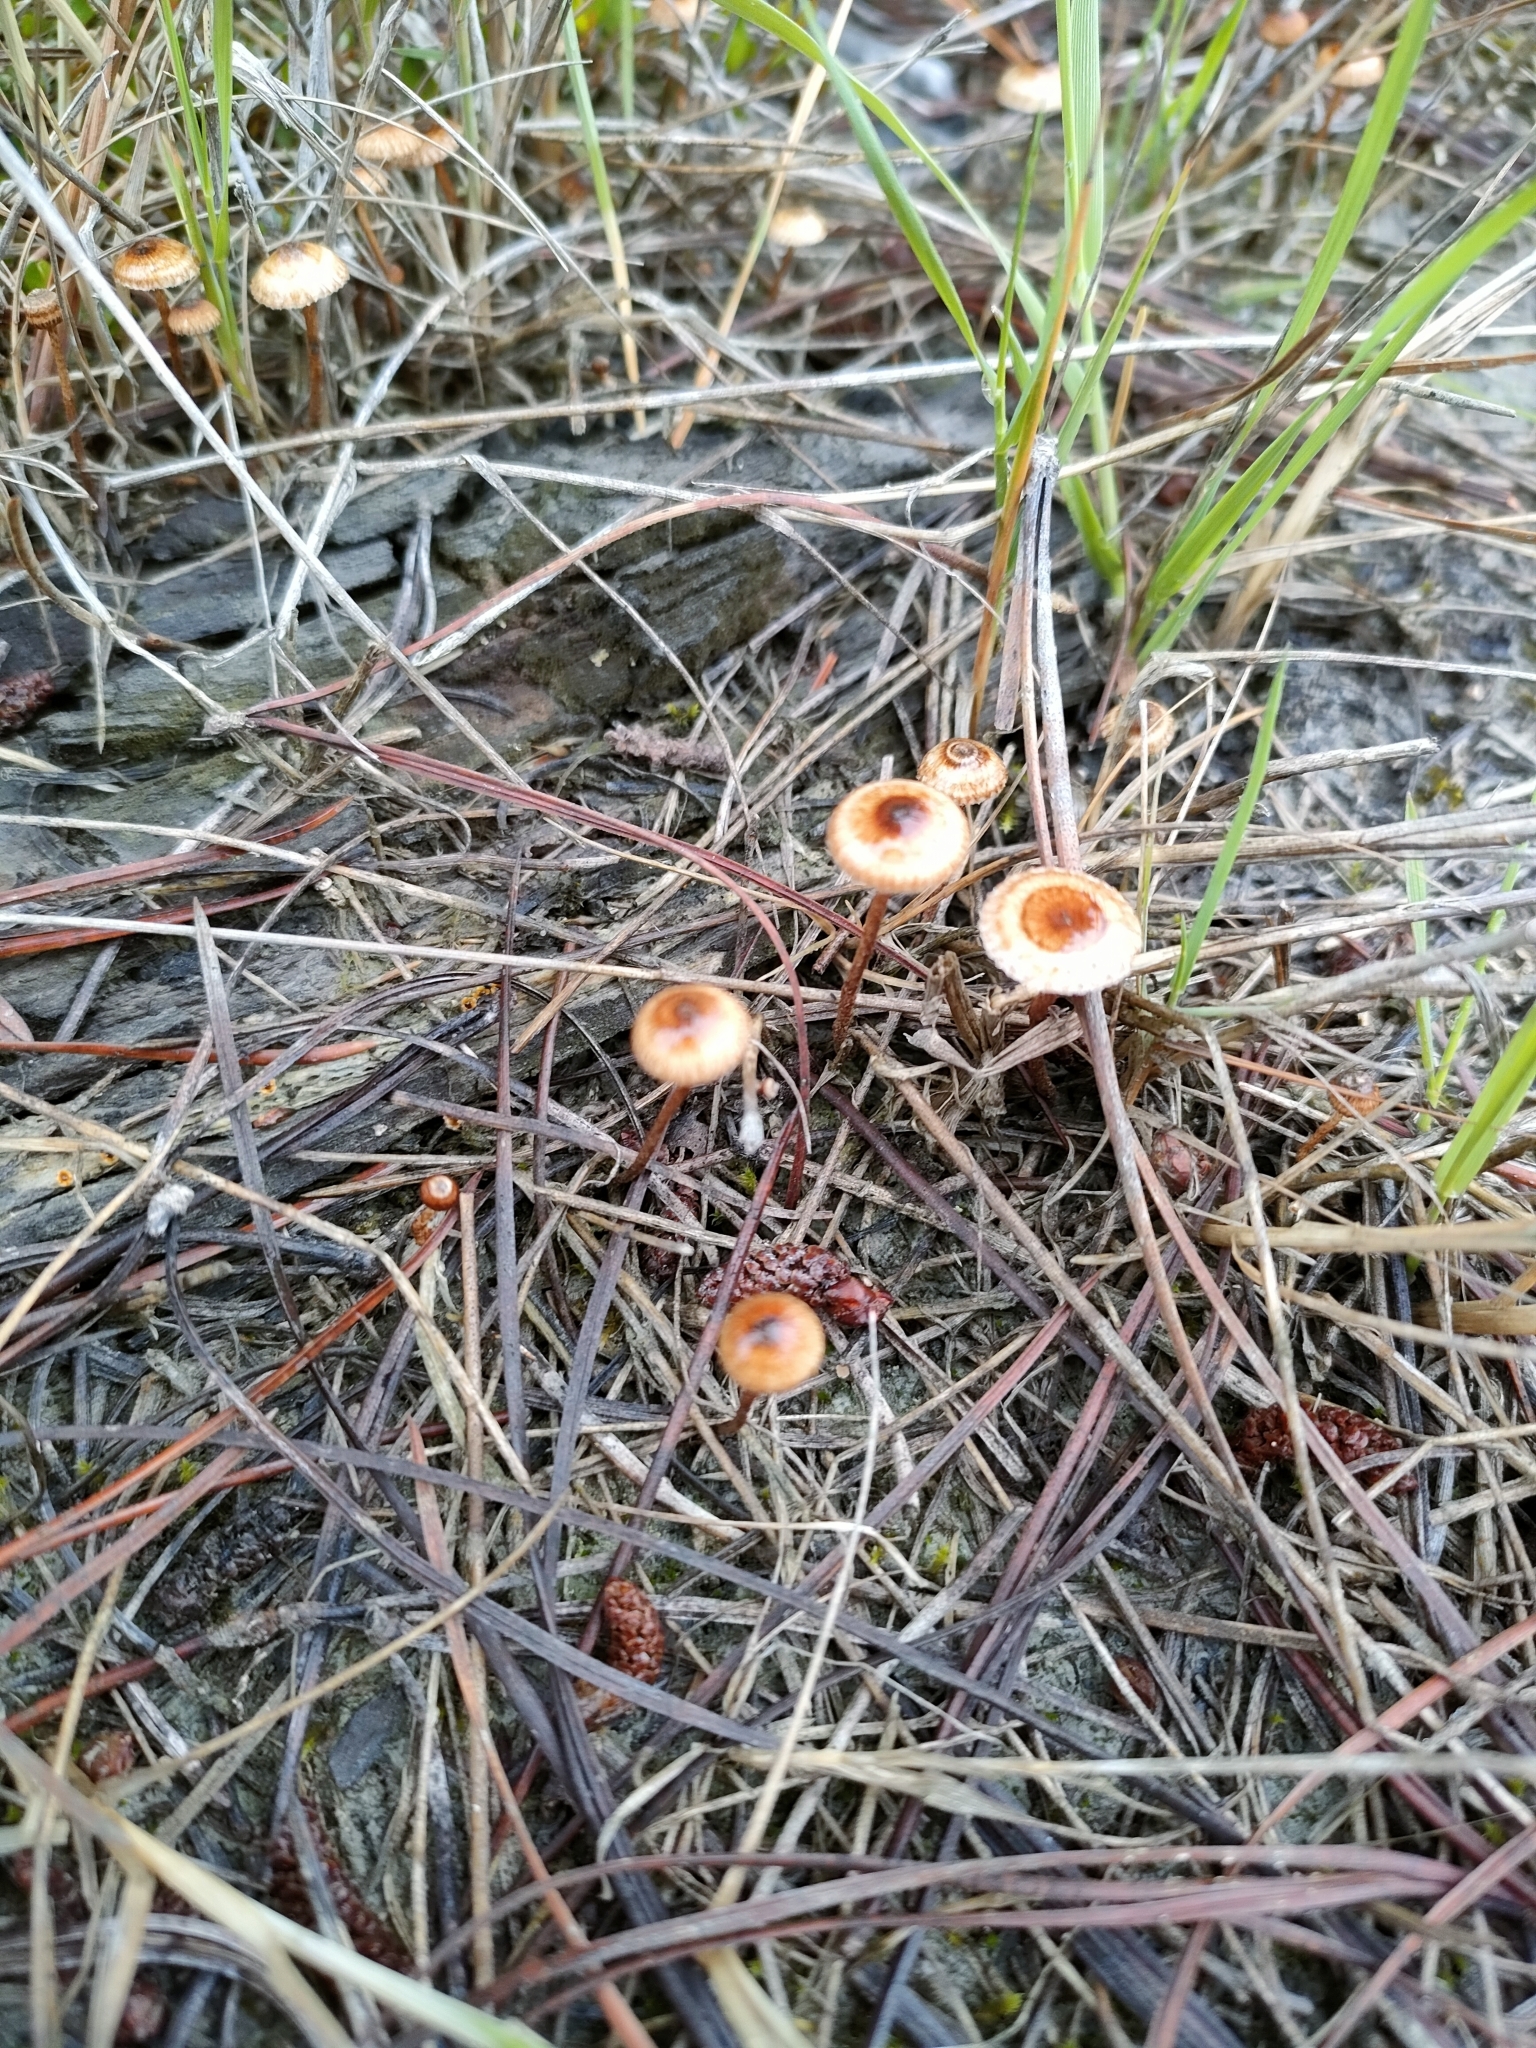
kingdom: Fungi
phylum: Basidiomycota
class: Agaricomycetes
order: Agaricales
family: Marasmiaceae
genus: Crinipellis
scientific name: Crinipellis scabella
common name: Hairy parachute
